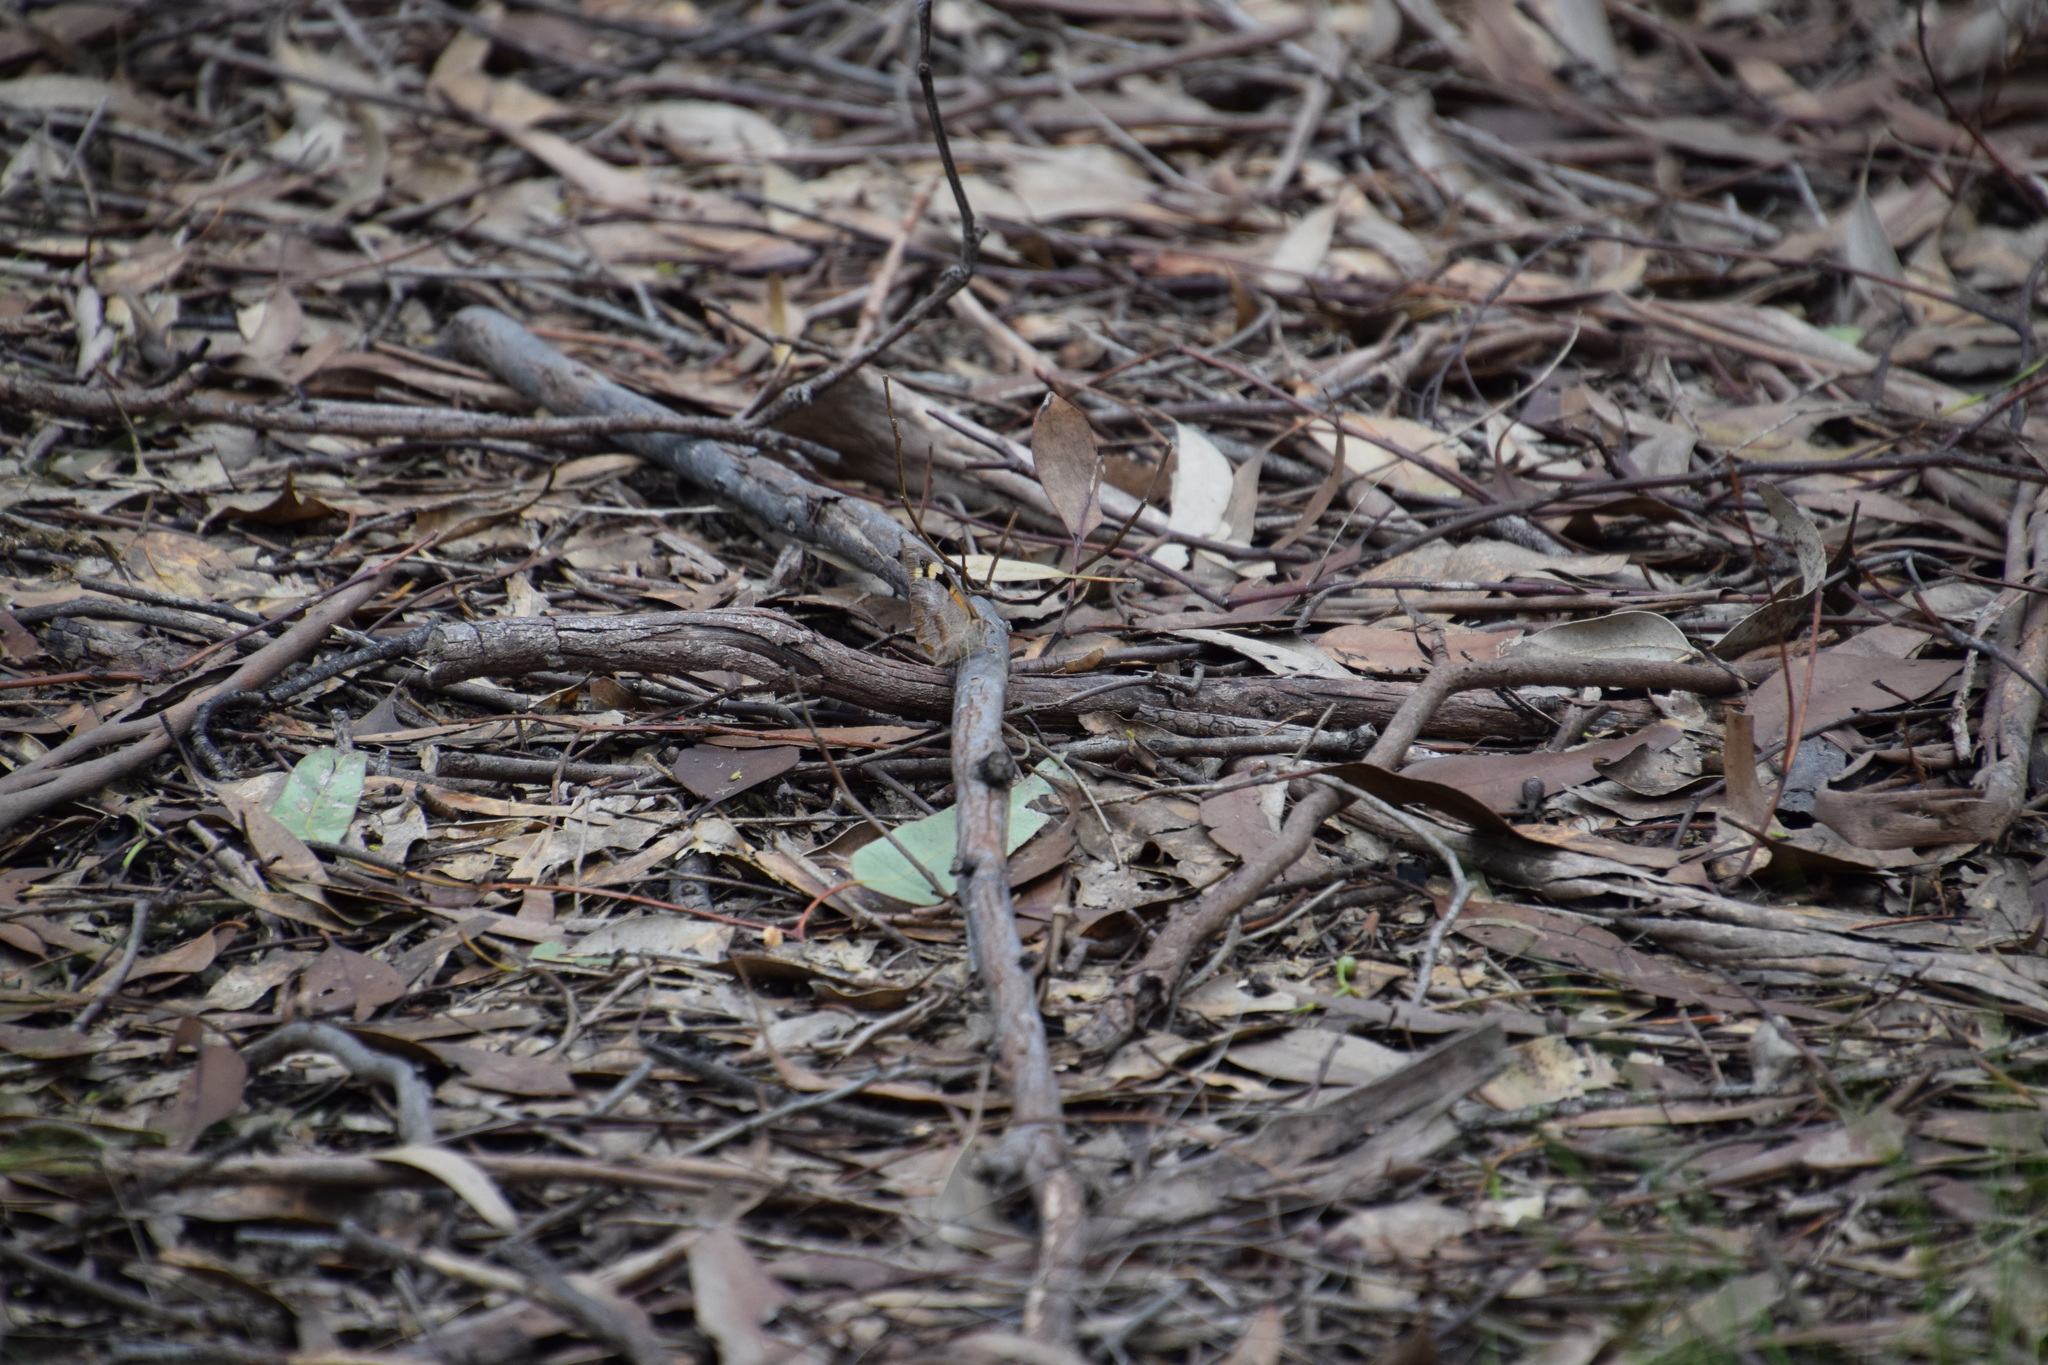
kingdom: Animalia
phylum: Arthropoda
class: Insecta
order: Lepidoptera
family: Nymphalidae
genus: Heteronympha
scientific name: Heteronympha merope
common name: Common brown
